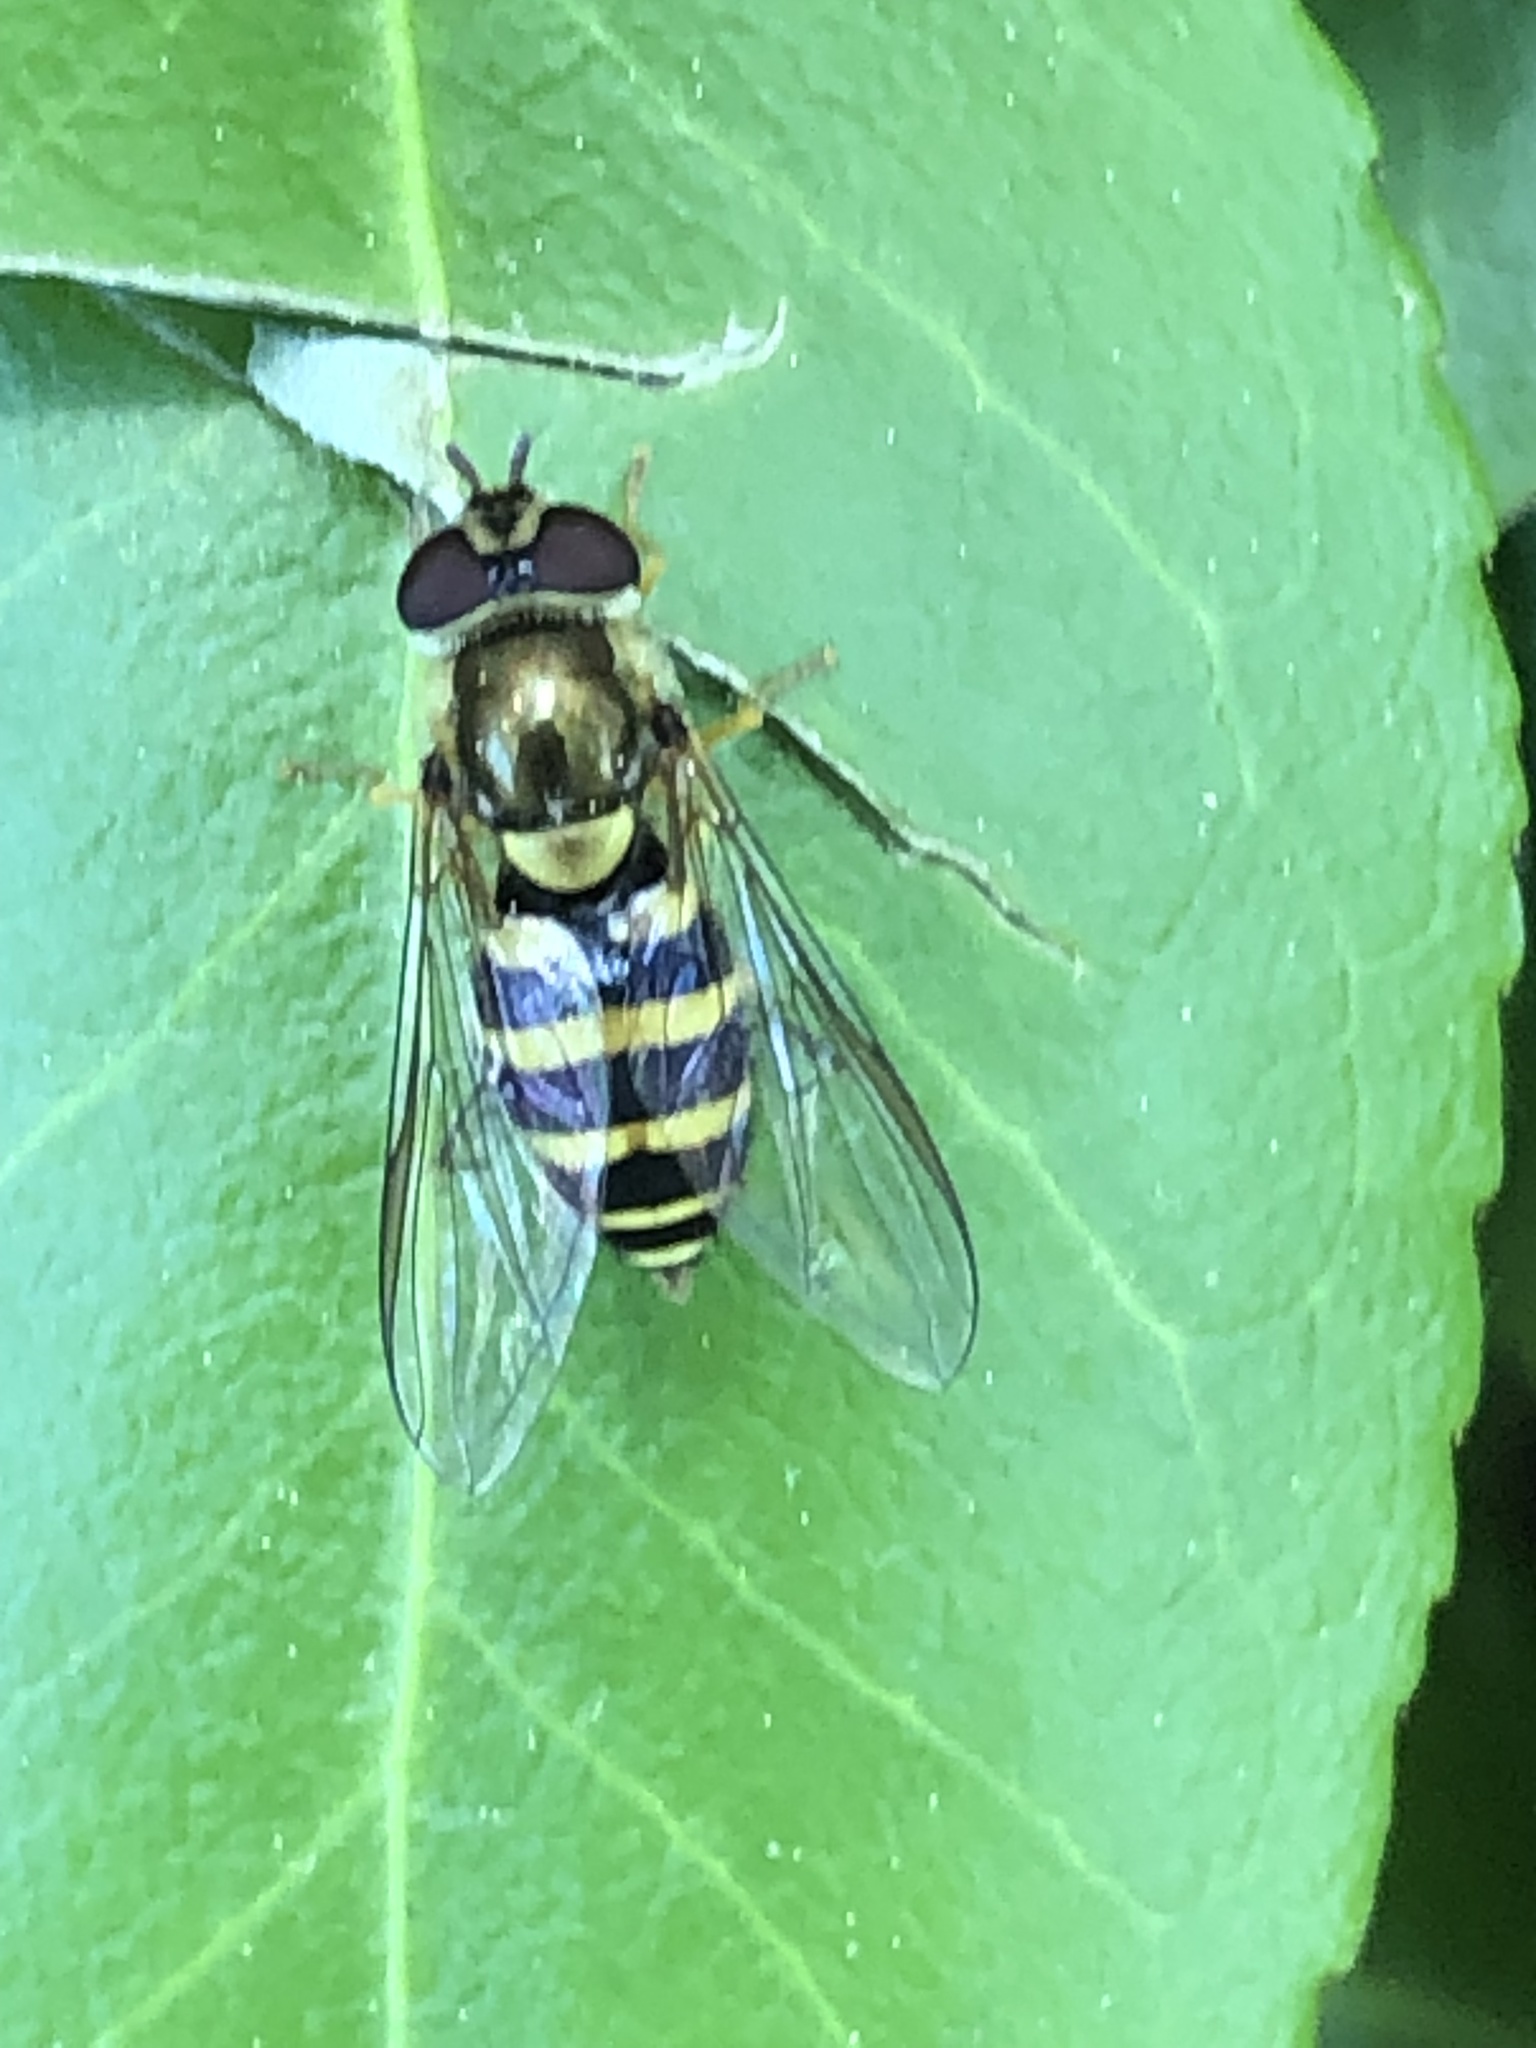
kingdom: Animalia
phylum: Arthropoda
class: Insecta
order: Diptera
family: Syrphidae
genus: Syrphus
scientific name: Syrphus
